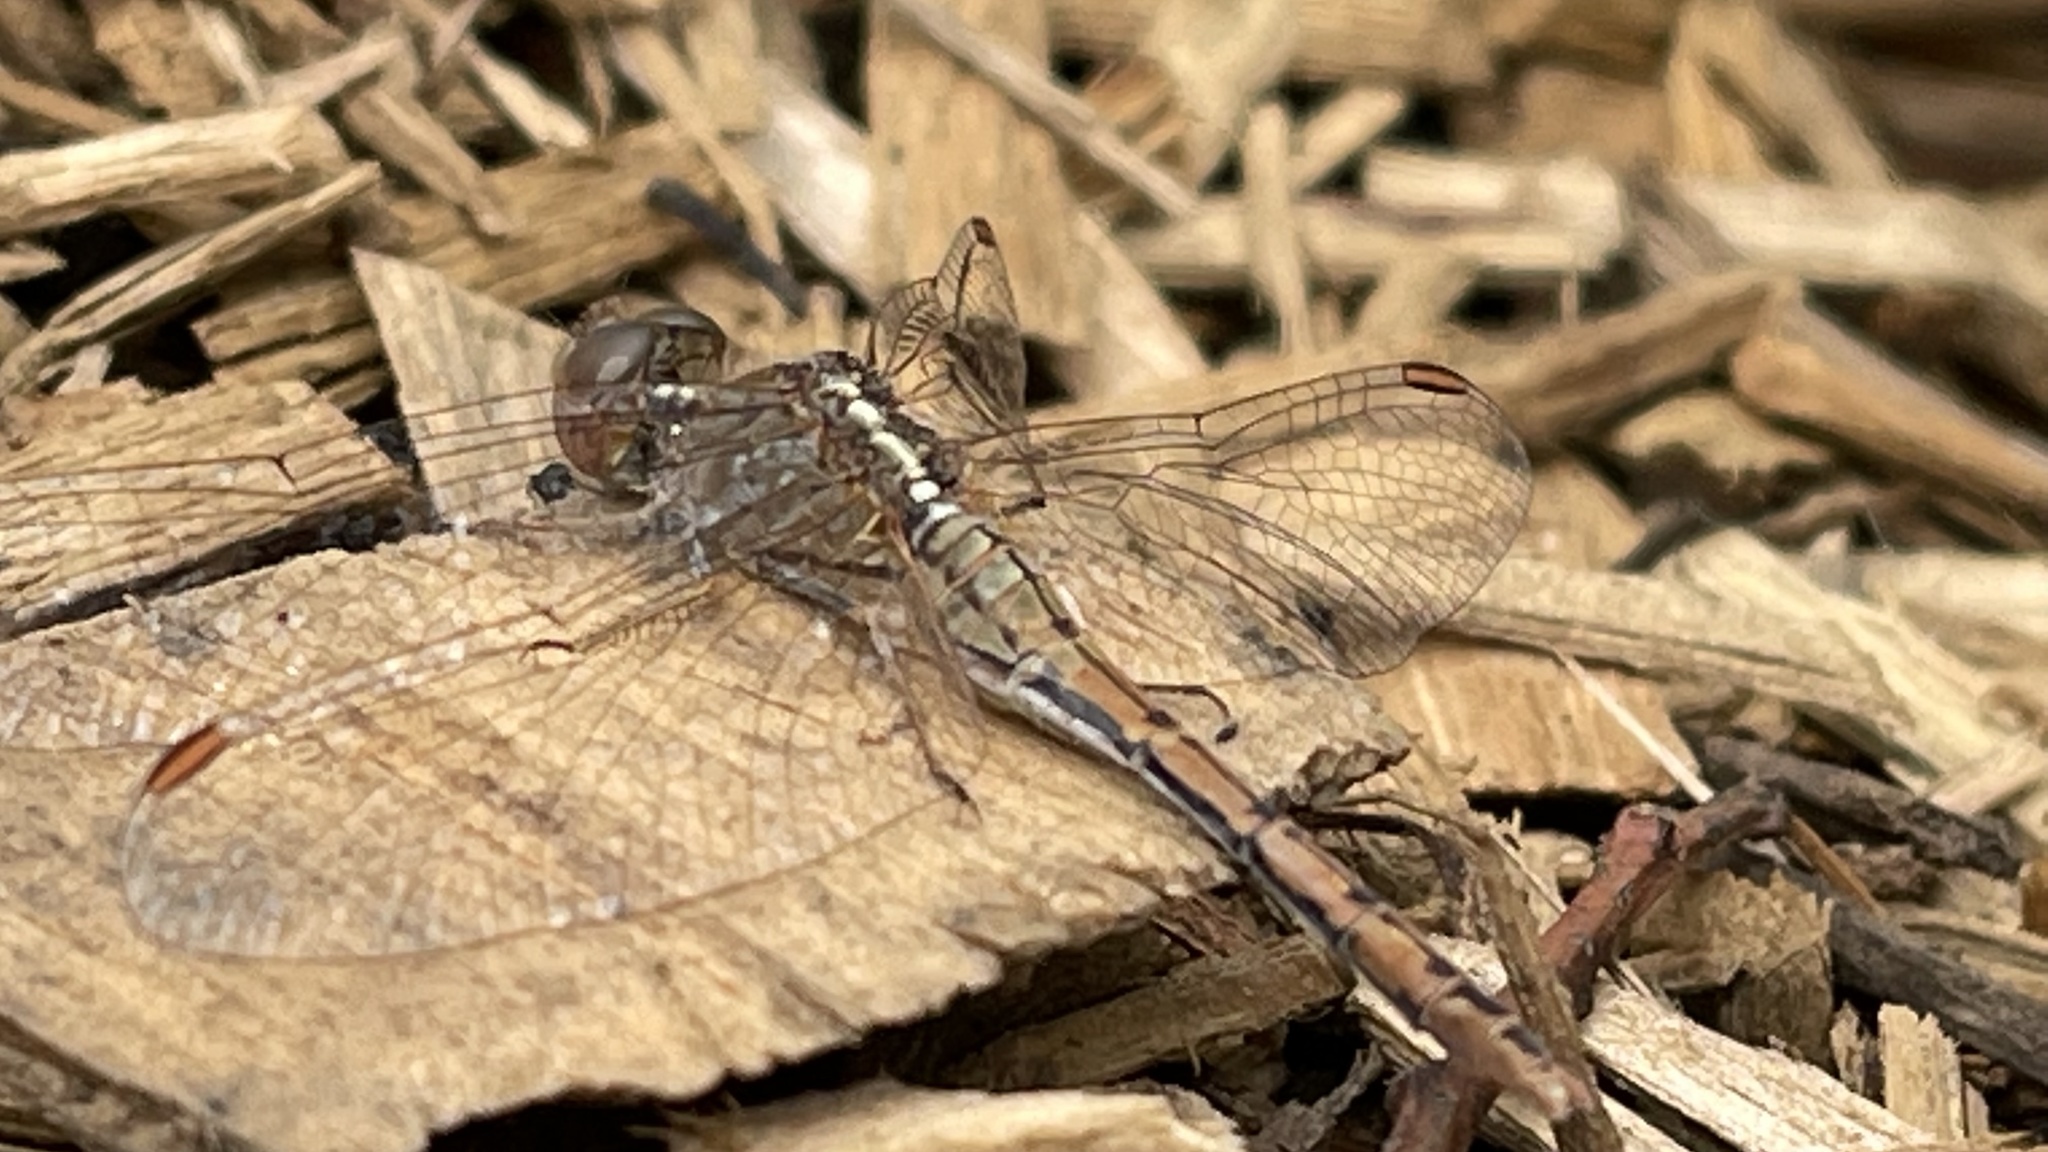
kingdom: Animalia
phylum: Arthropoda
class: Insecta
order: Odonata
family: Libellulidae
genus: Diplacodes
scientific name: Diplacodes bipunctata
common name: Red percher dragonfly
